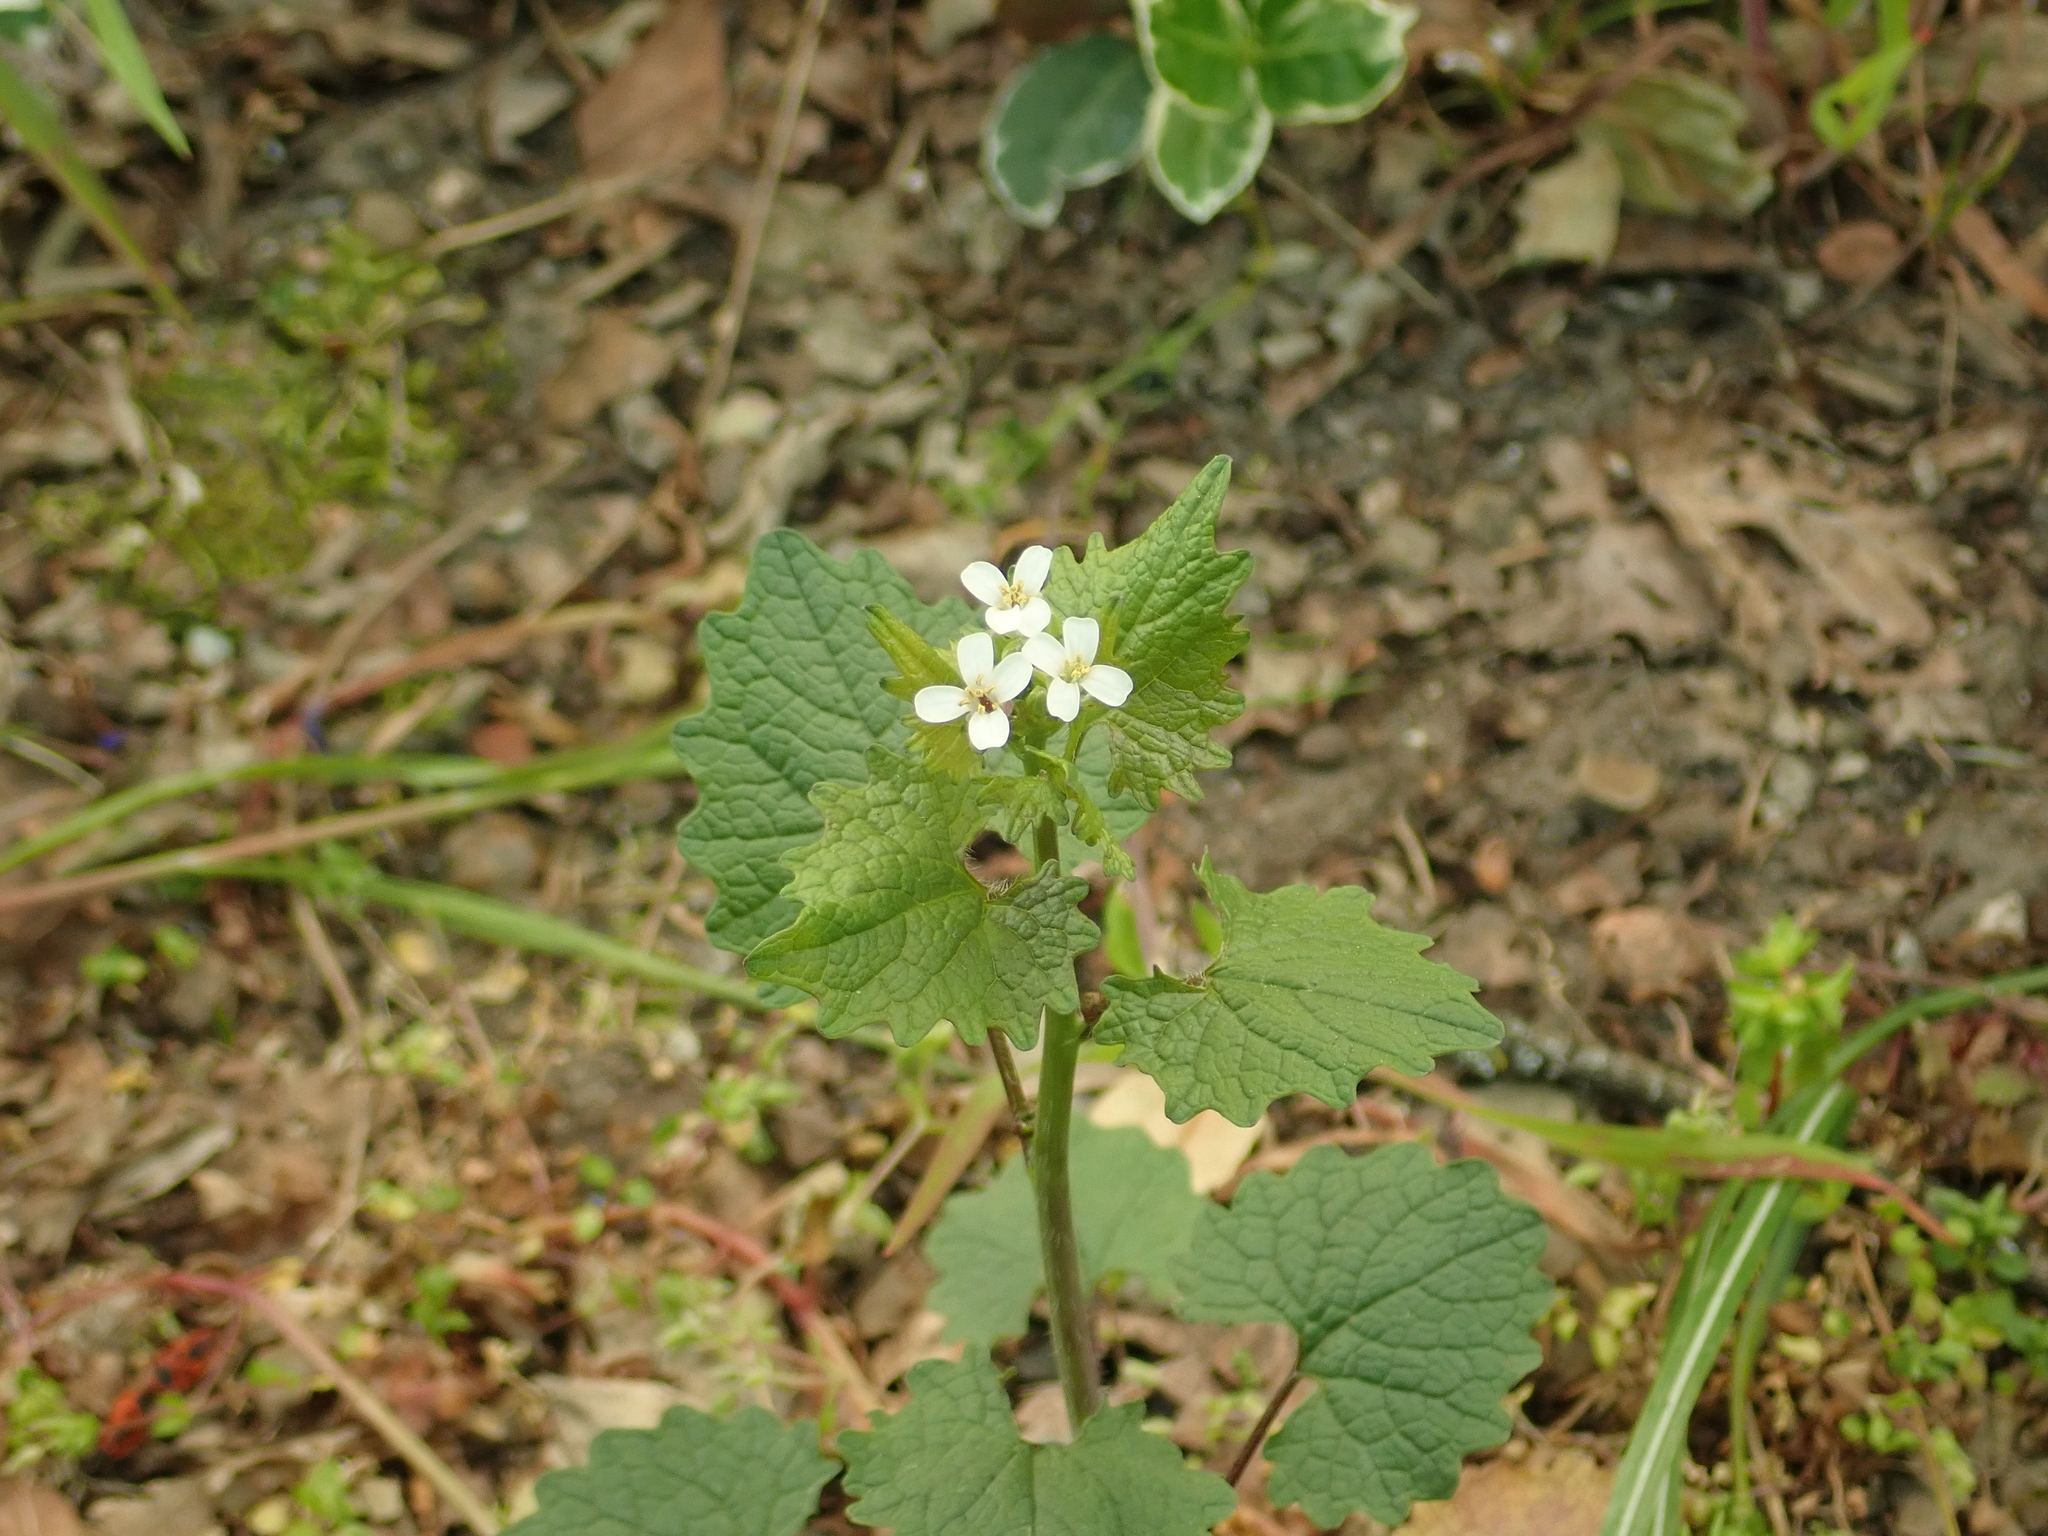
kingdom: Plantae
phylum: Tracheophyta
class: Magnoliopsida
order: Brassicales
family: Brassicaceae
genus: Alliaria
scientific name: Alliaria petiolata
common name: Garlic mustard
